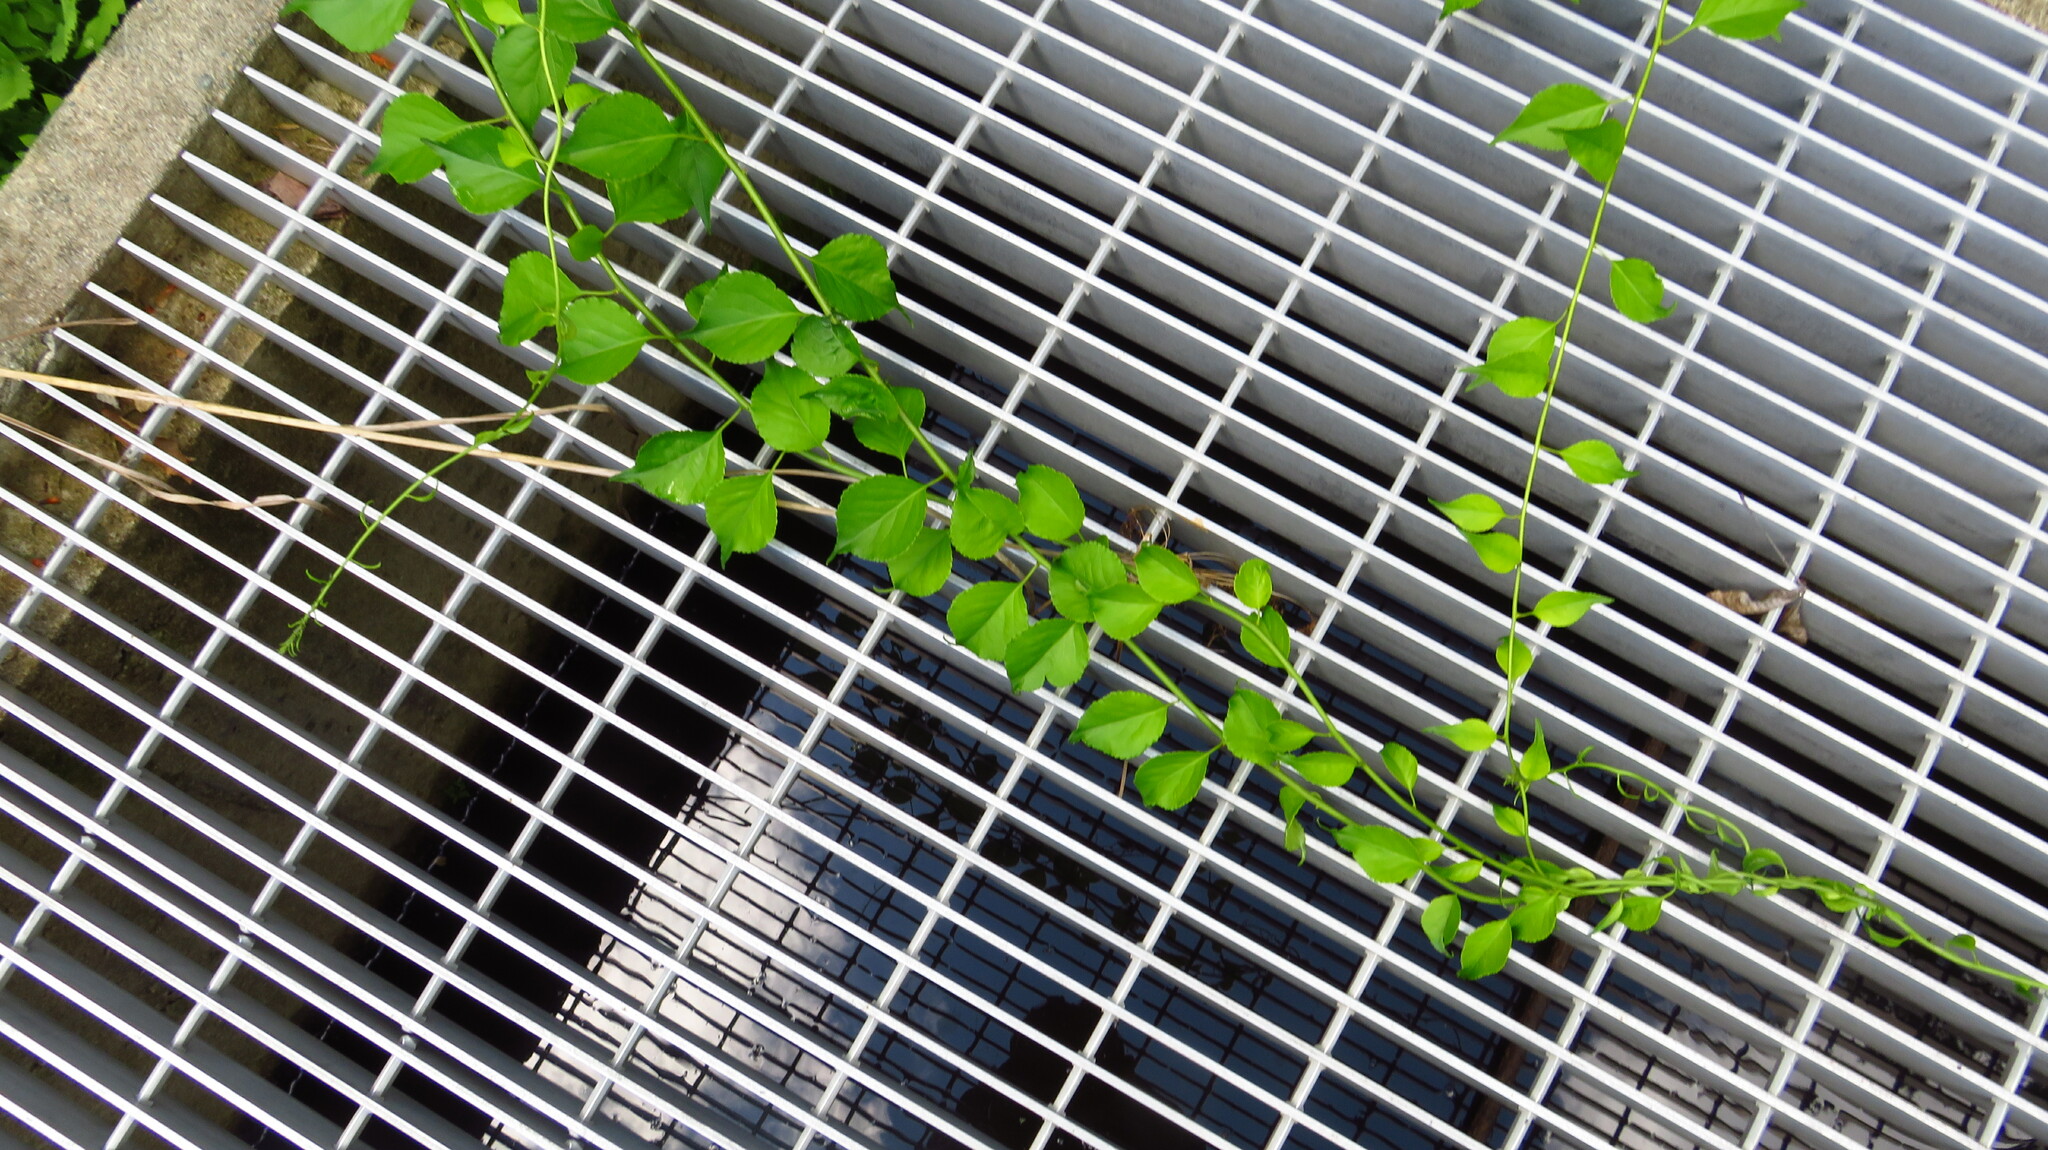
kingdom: Plantae
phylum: Tracheophyta
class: Magnoliopsida
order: Celastrales
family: Celastraceae
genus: Celastrus
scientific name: Celastrus orbiculatus
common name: Oriental bittersweet
